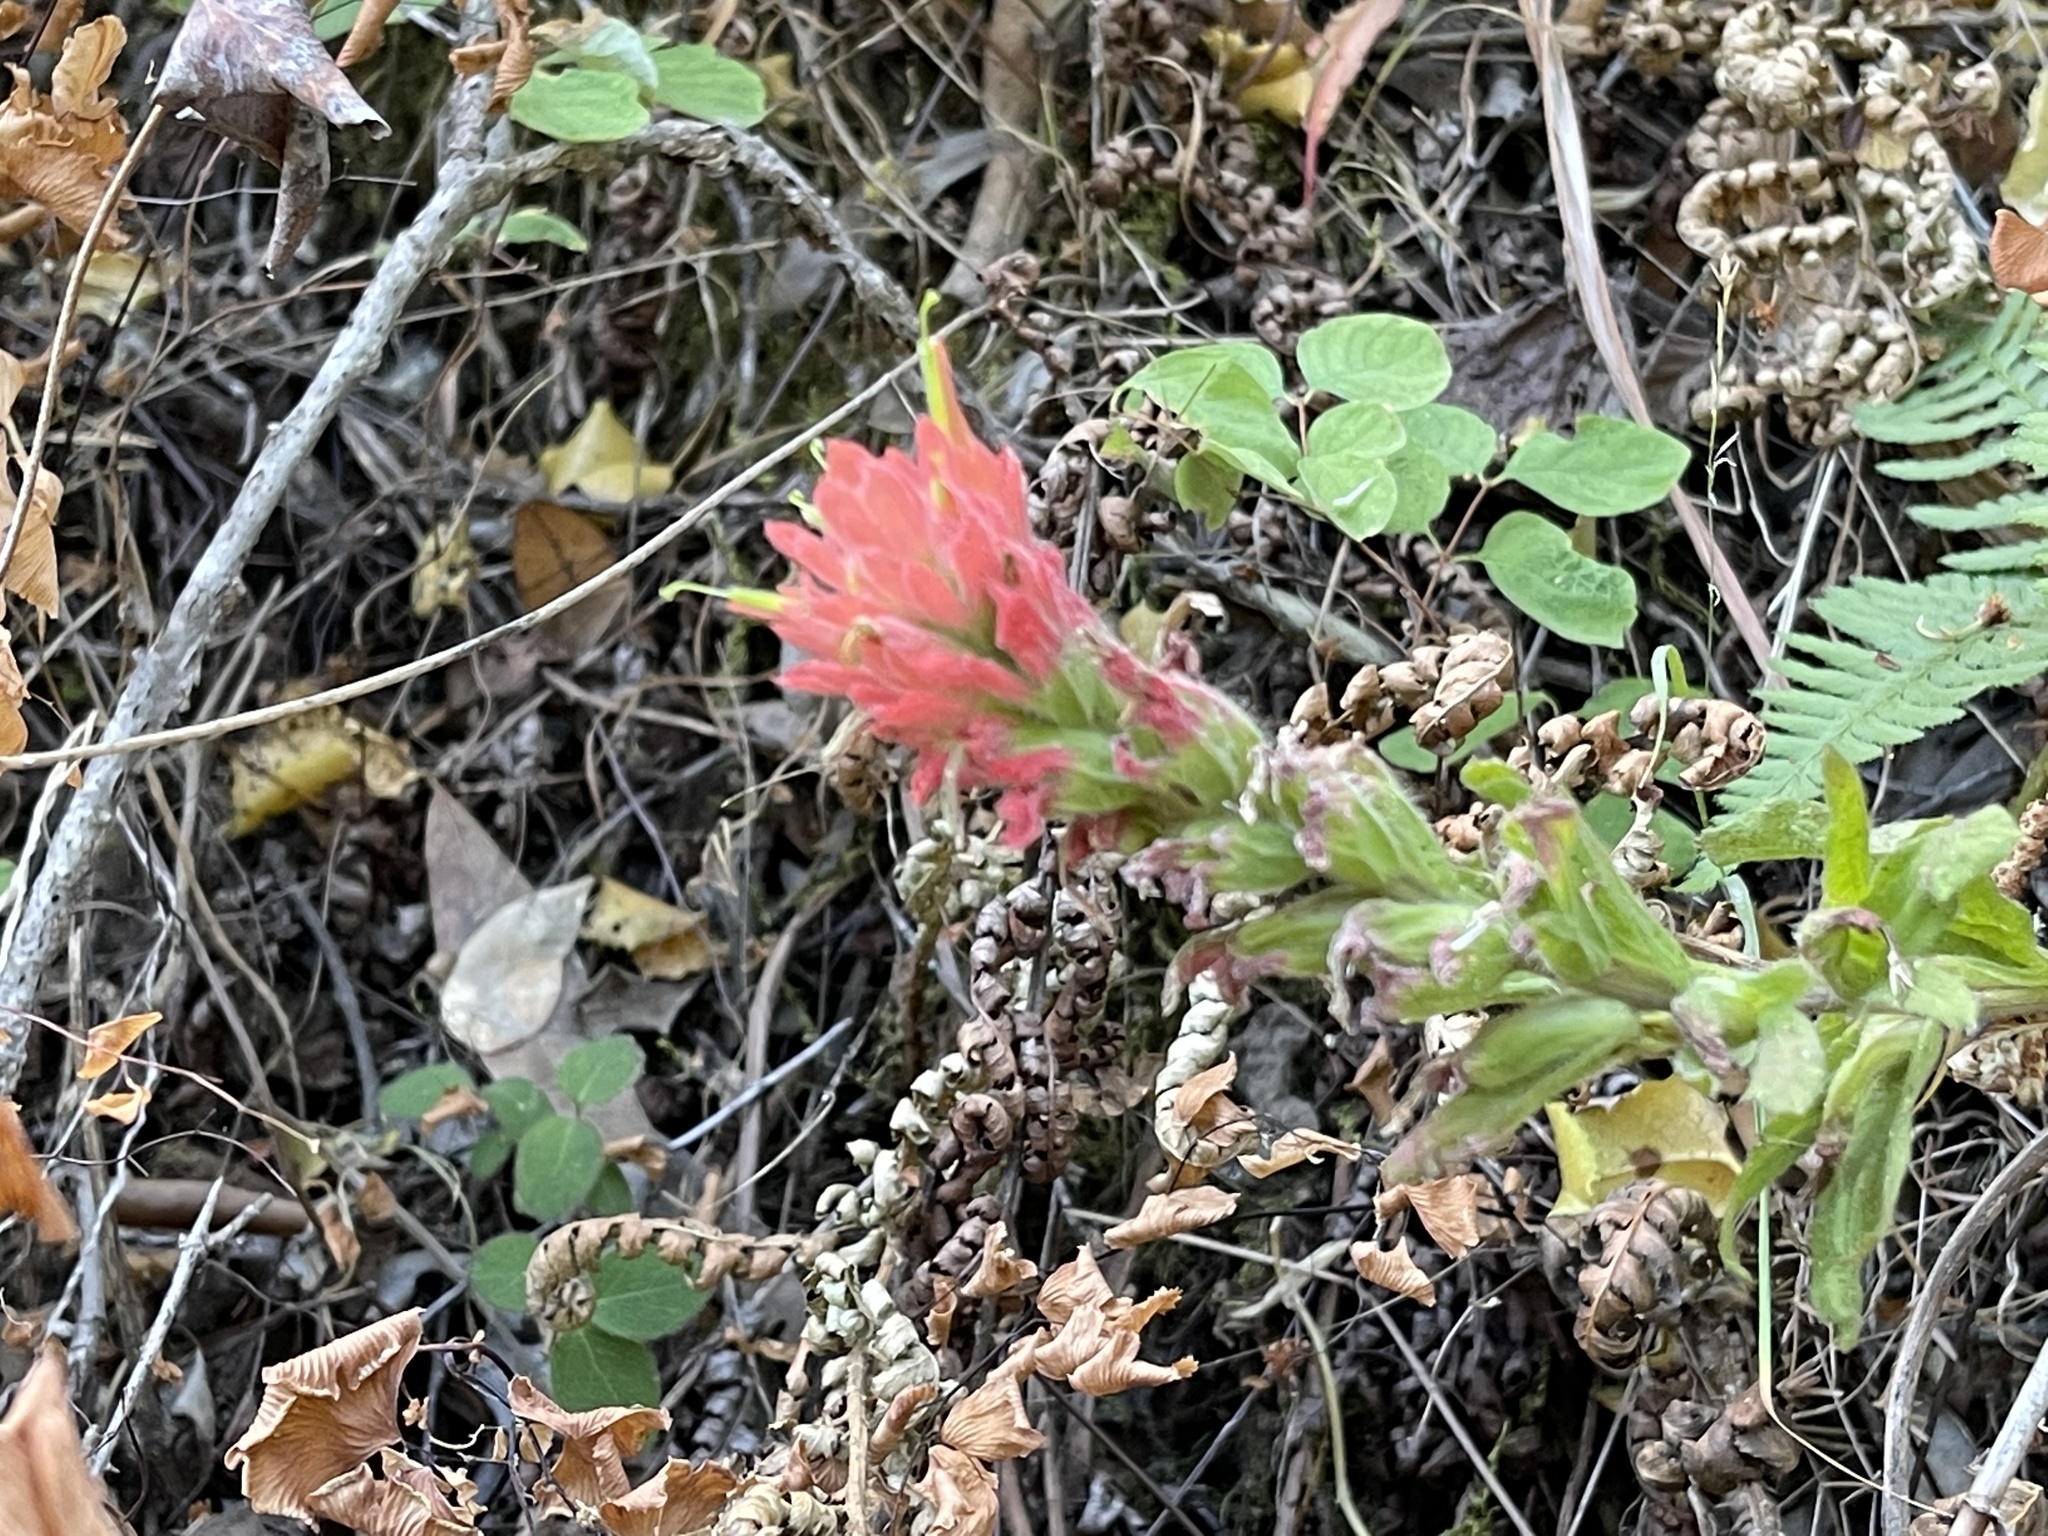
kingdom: Plantae
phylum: Tracheophyta
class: Magnoliopsida
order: Lamiales
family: Orobanchaceae
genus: Castilleja
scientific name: Castilleja affinis
